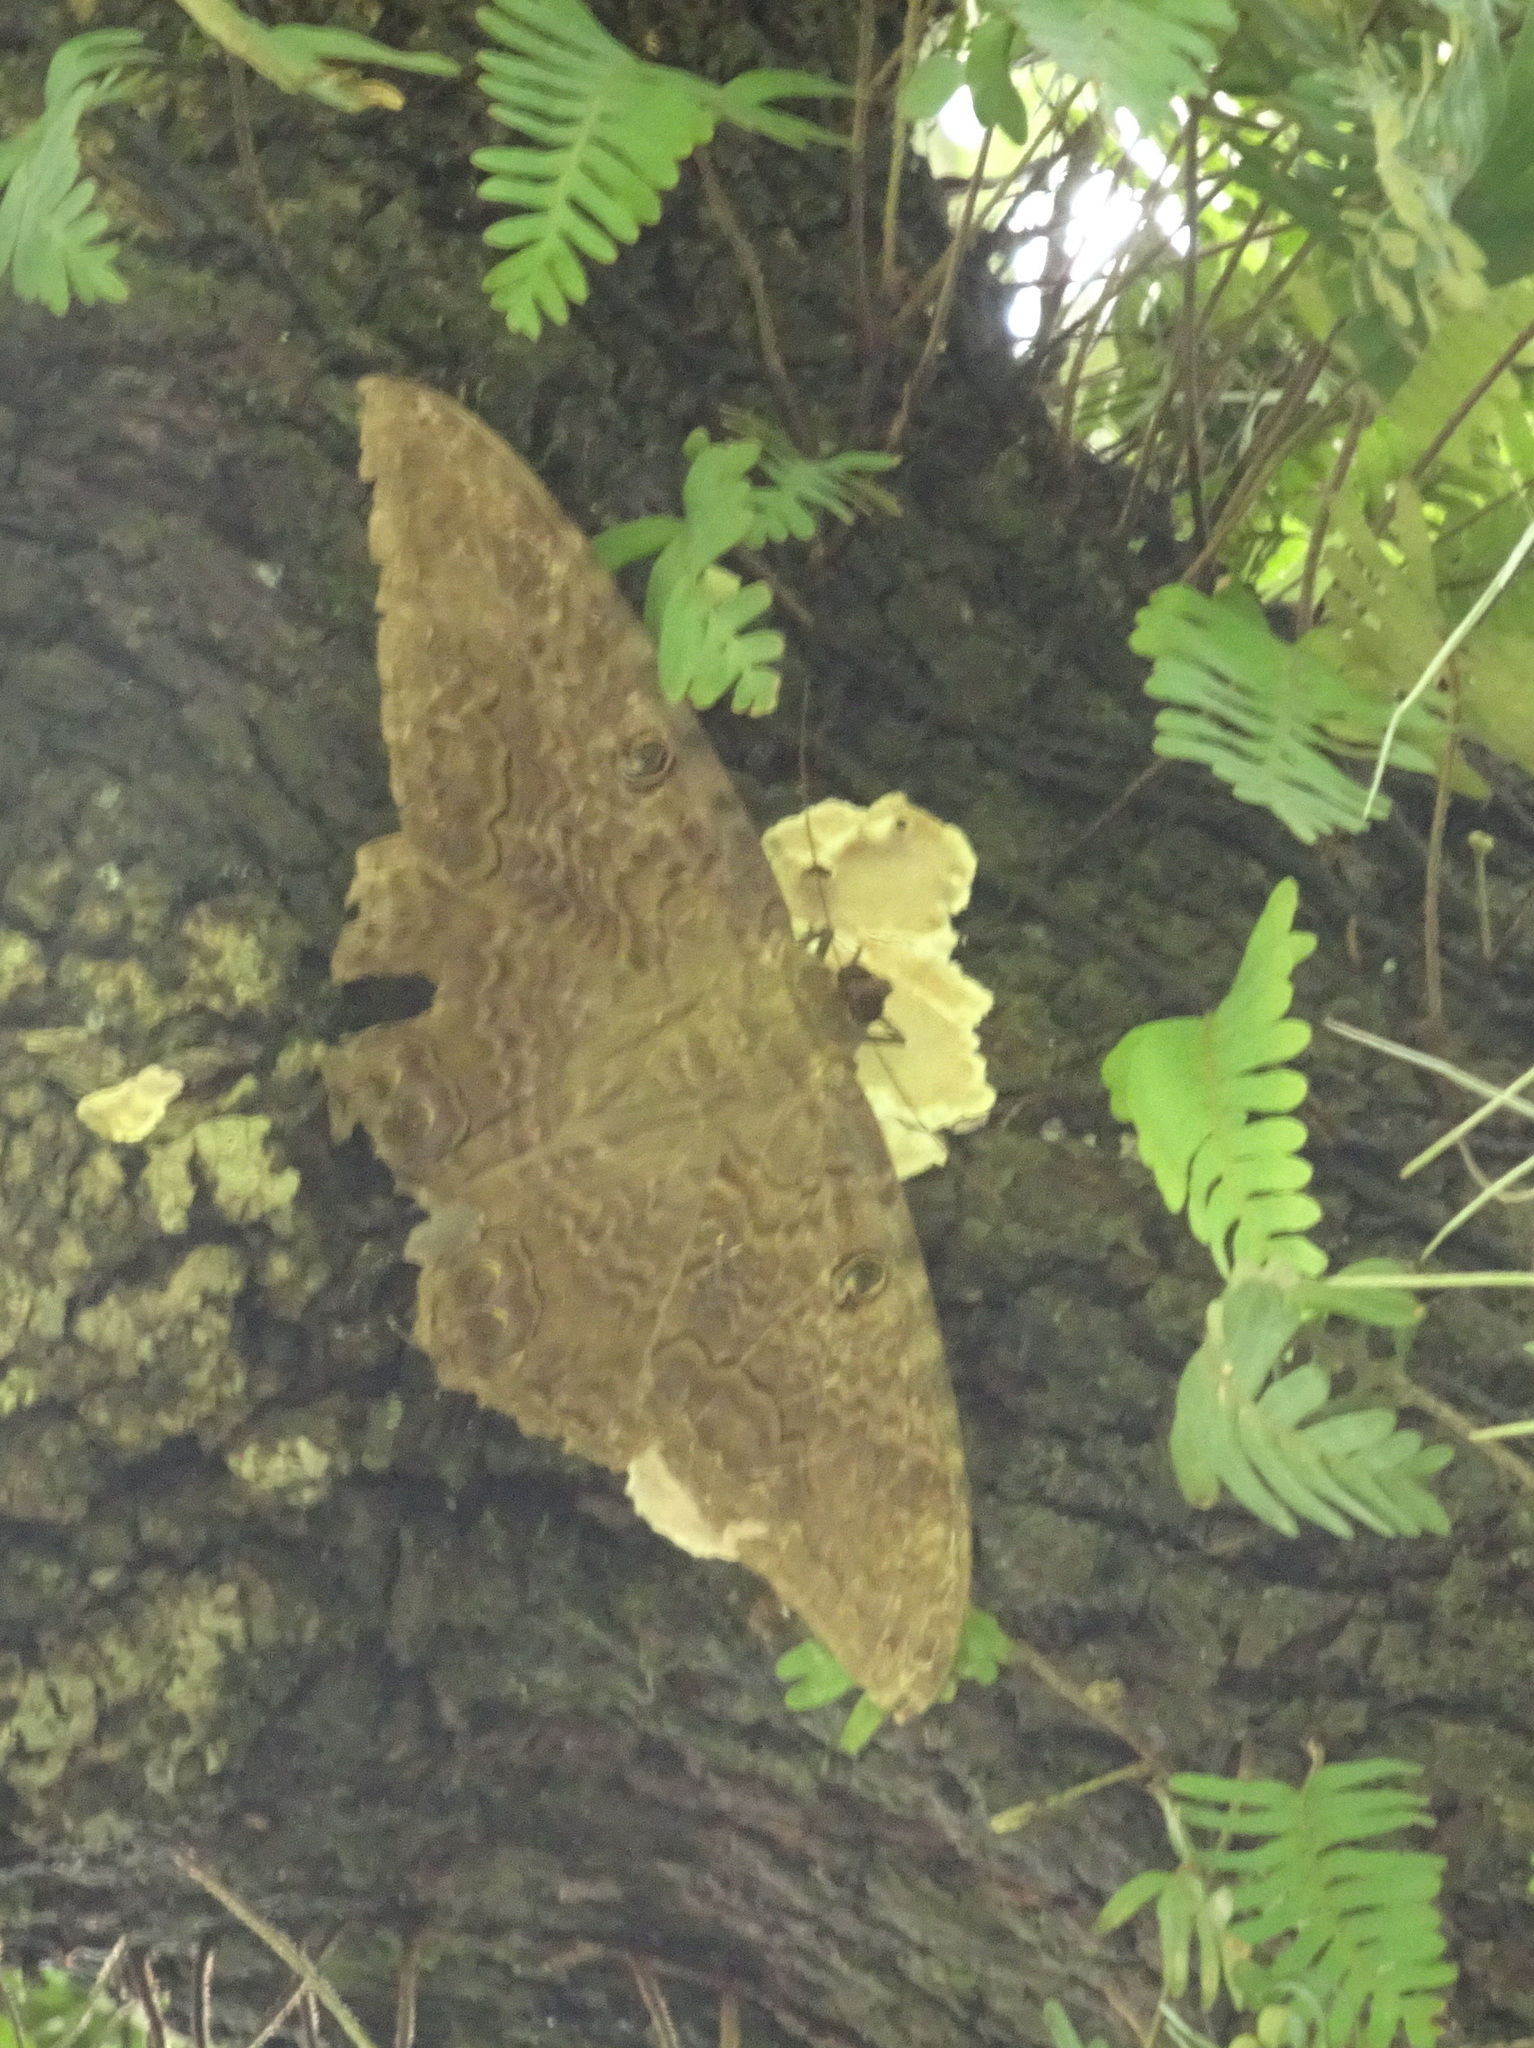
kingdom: Animalia
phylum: Arthropoda
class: Insecta
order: Lepidoptera
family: Erebidae
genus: Ascalapha
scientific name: Ascalapha odorata
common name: Black witch
